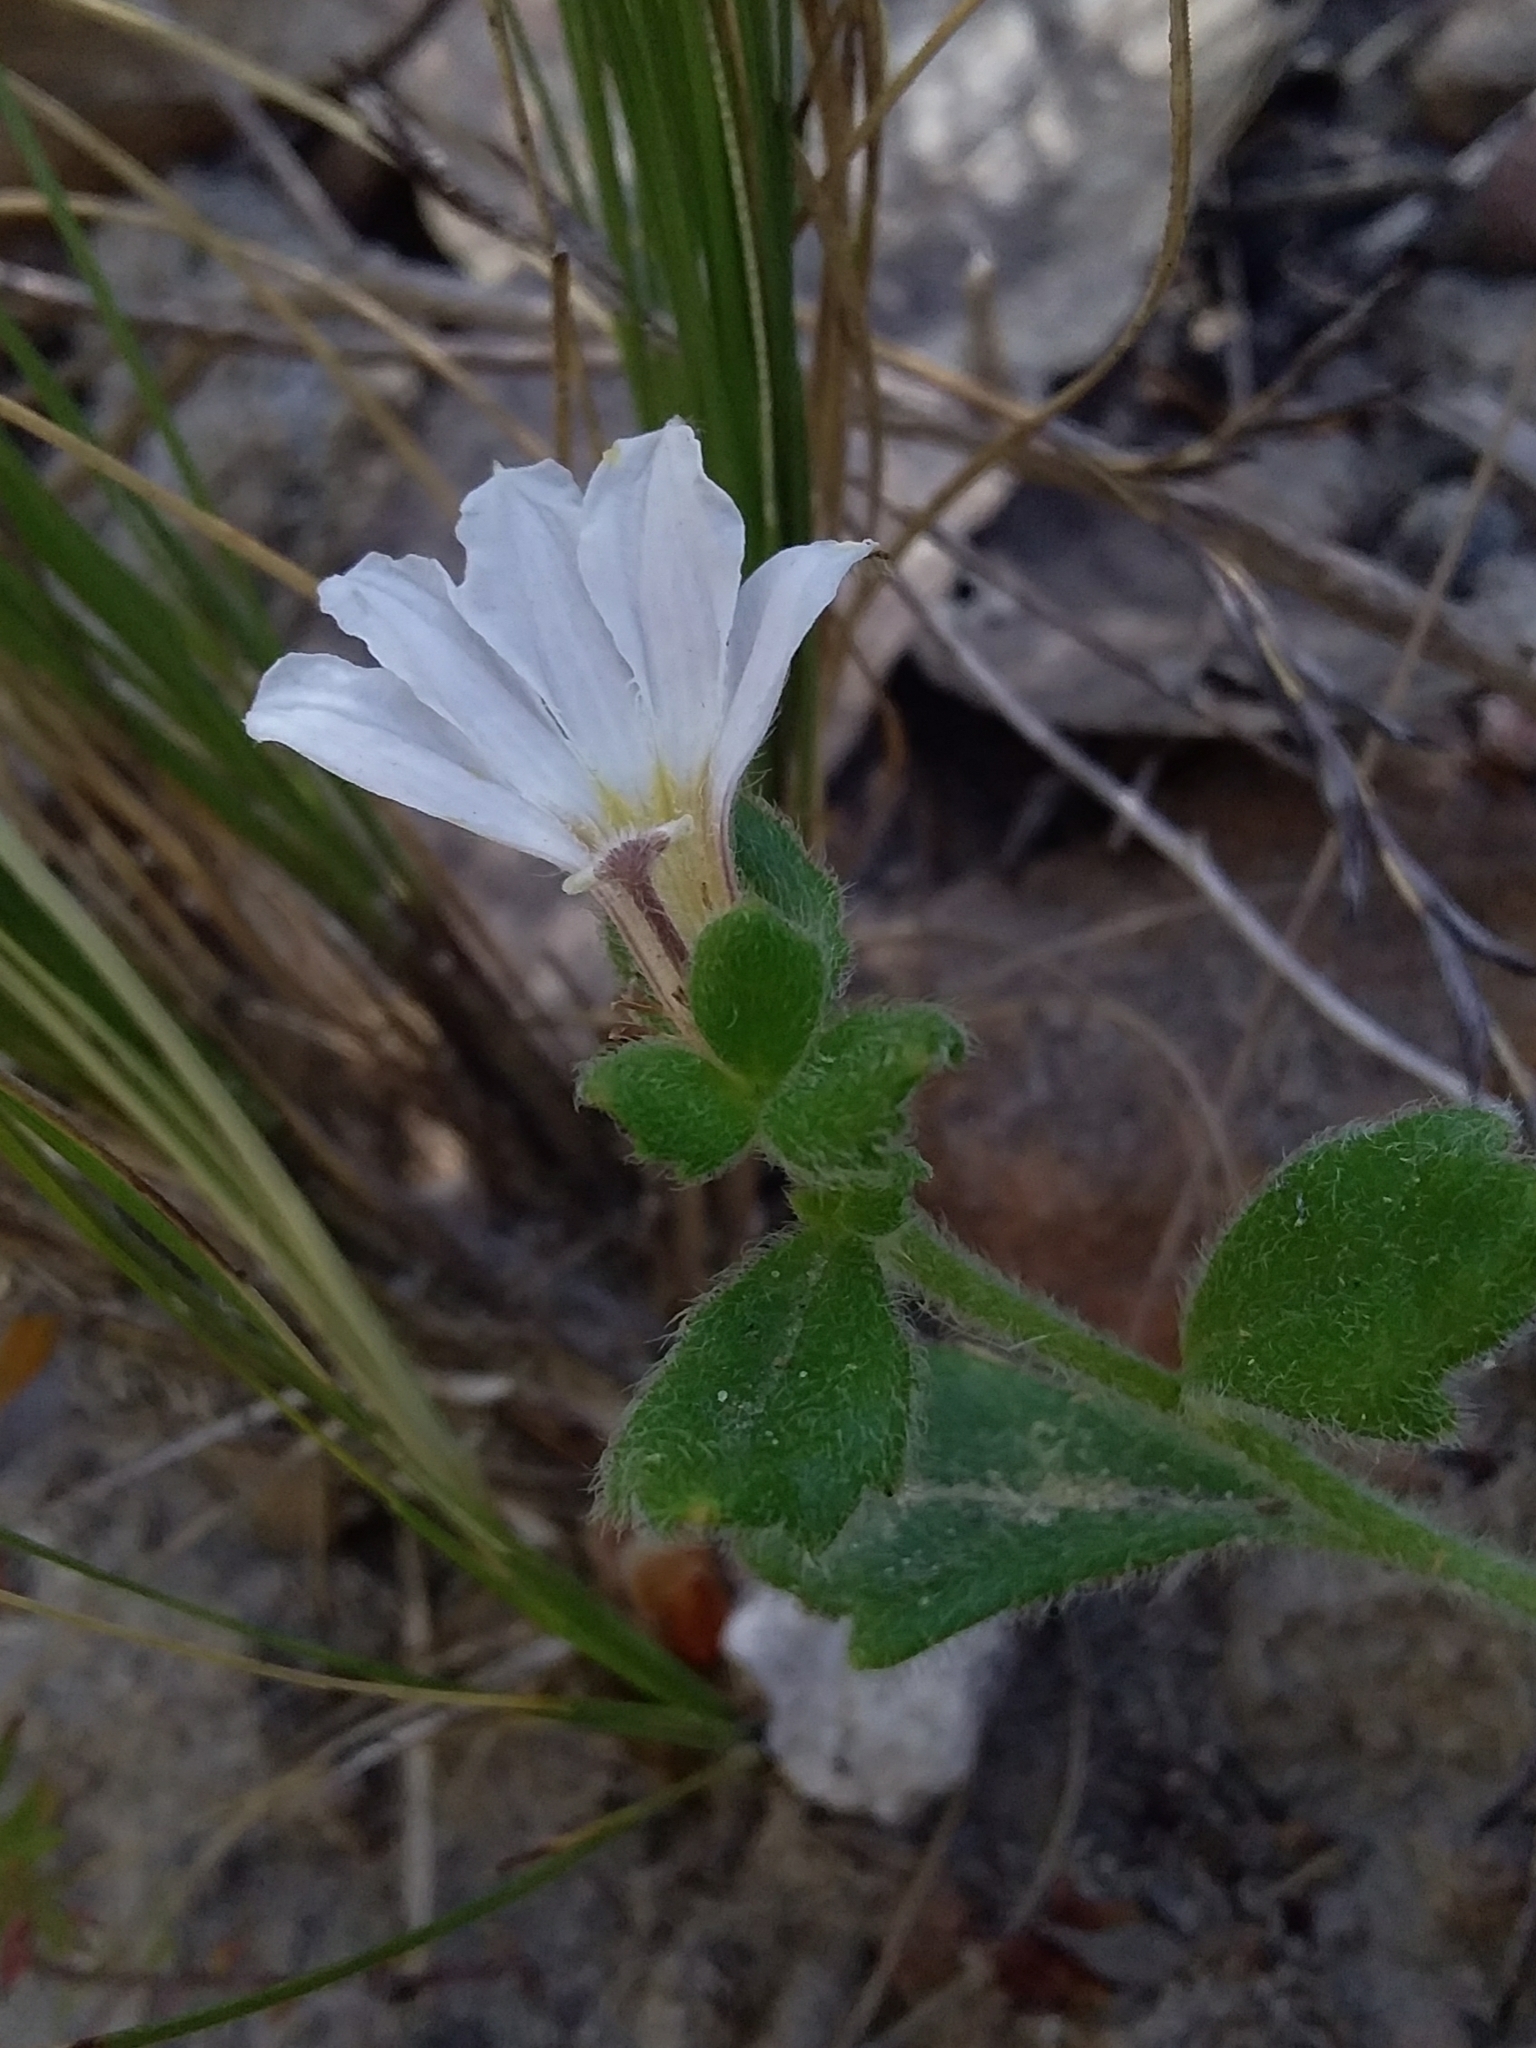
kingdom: Plantae
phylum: Tracheophyta
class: Magnoliopsida
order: Asterales
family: Goodeniaceae
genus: Scaevola
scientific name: Scaevola albida
